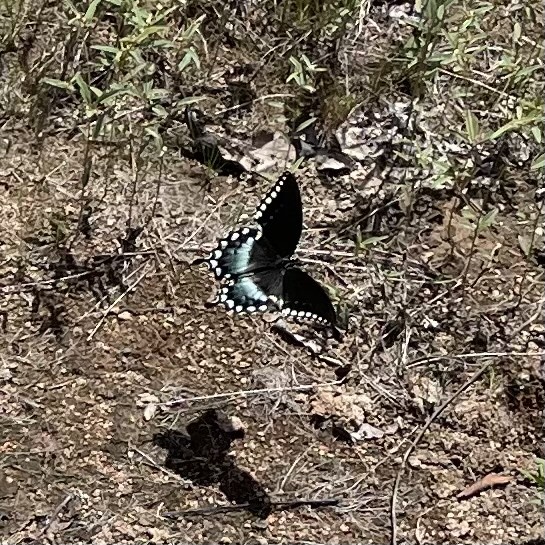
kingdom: Animalia
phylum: Arthropoda
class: Insecta
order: Lepidoptera
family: Papilionidae
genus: Papilio
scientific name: Papilio troilus
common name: Spicebush swallowtail
